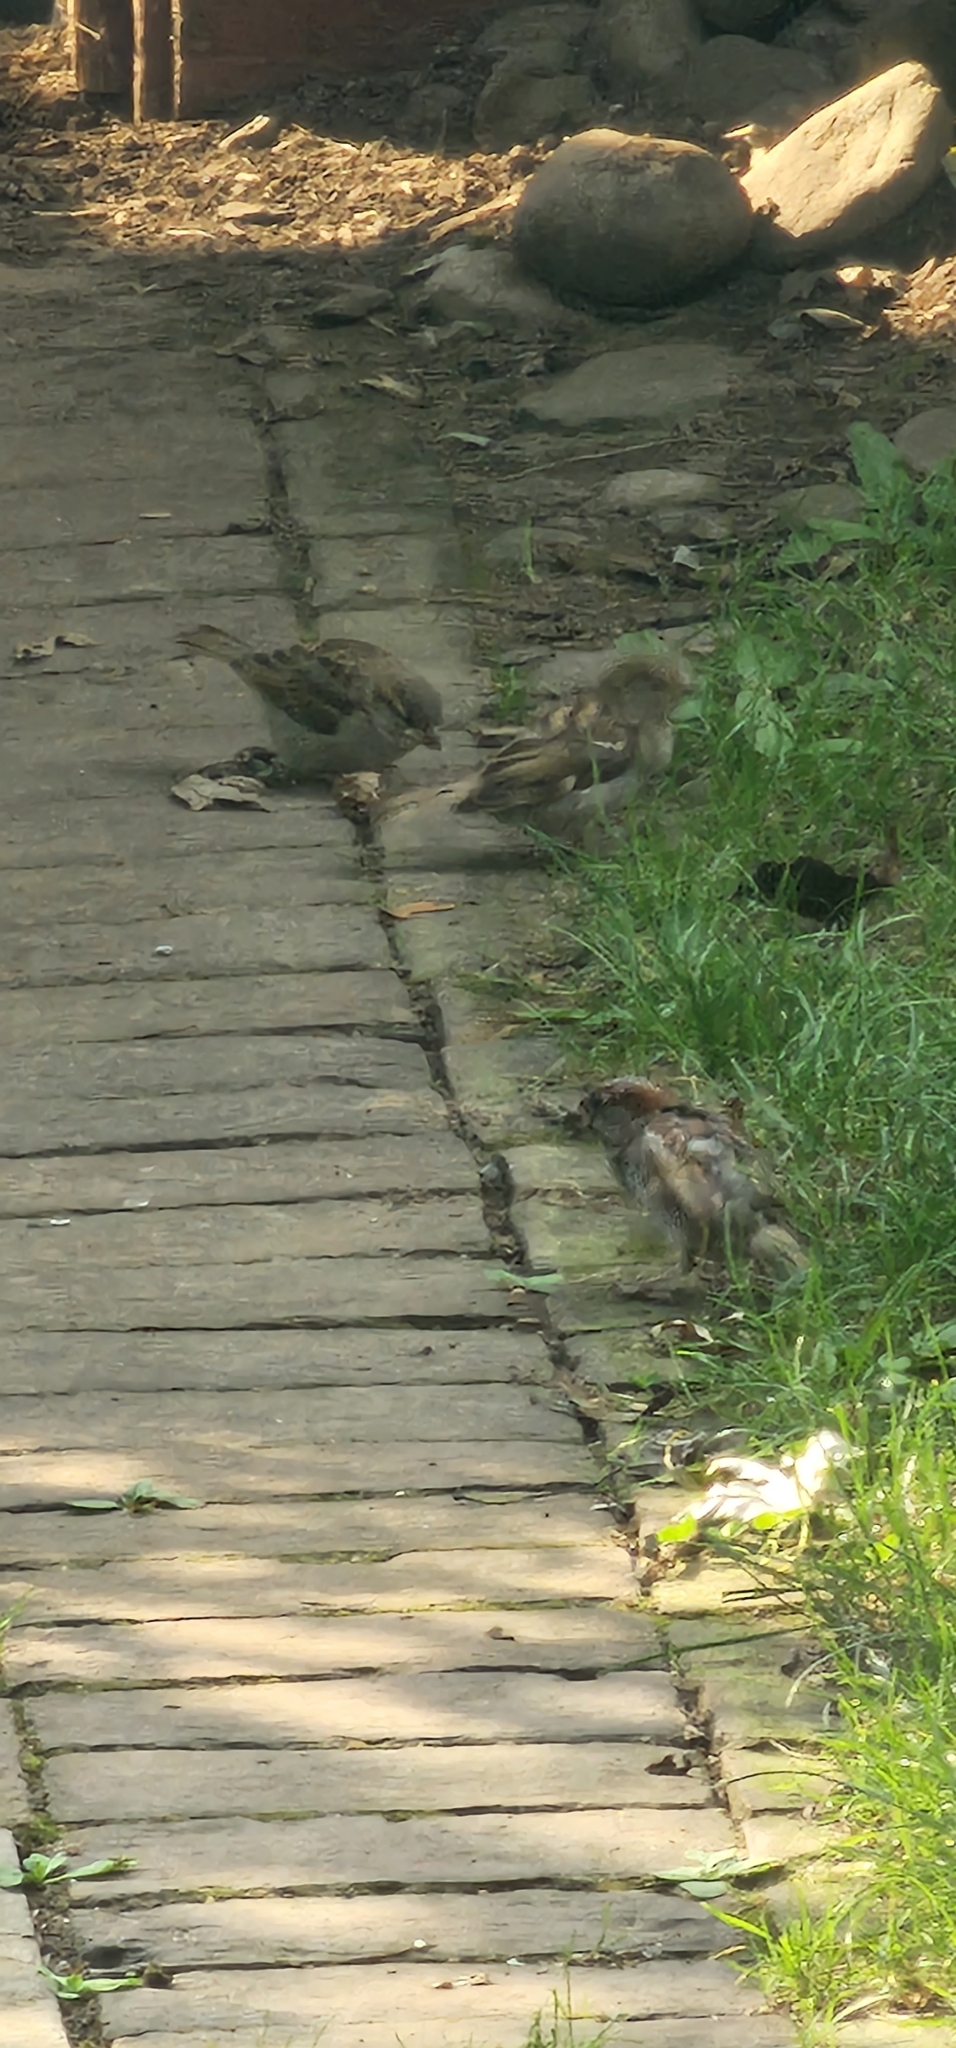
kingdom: Animalia
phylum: Chordata
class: Aves
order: Passeriformes
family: Passeridae
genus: Passer
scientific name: Passer domesticus
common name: House sparrow
